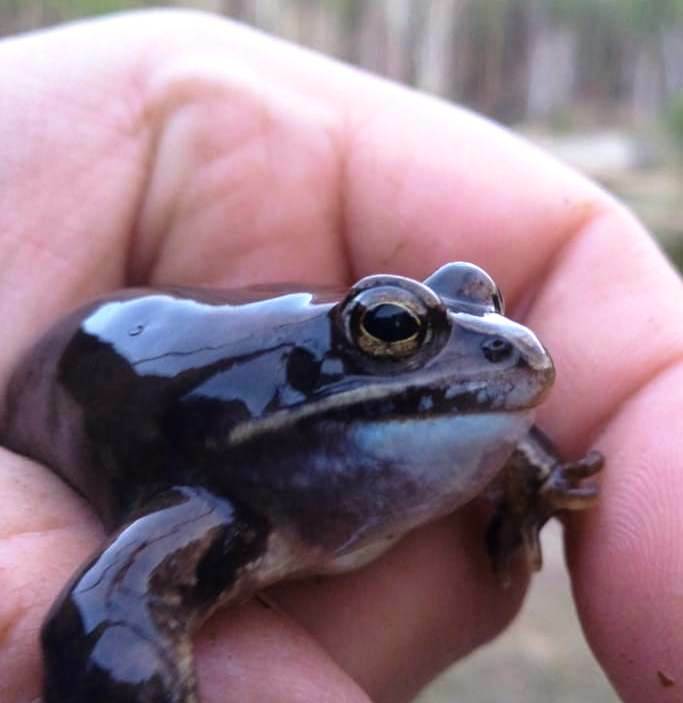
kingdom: Animalia
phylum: Chordata
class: Amphibia
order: Anura
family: Ranidae
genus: Rana
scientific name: Rana arvalis
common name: Moor frog
